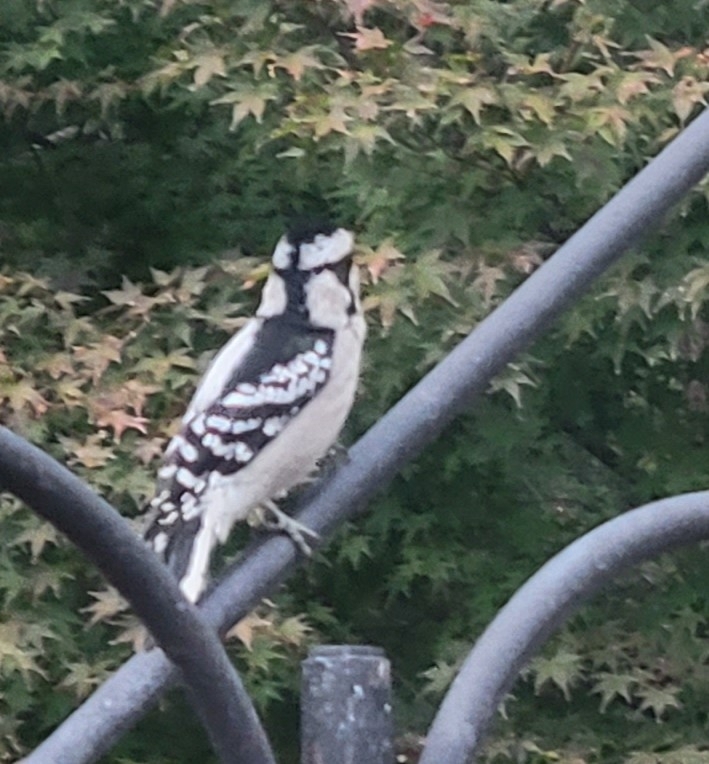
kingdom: Animalia
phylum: Chordata
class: Aves
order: Piciformes
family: Picidae
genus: Dryobates
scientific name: Dryobates pubescens
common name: Downy woodpecker
